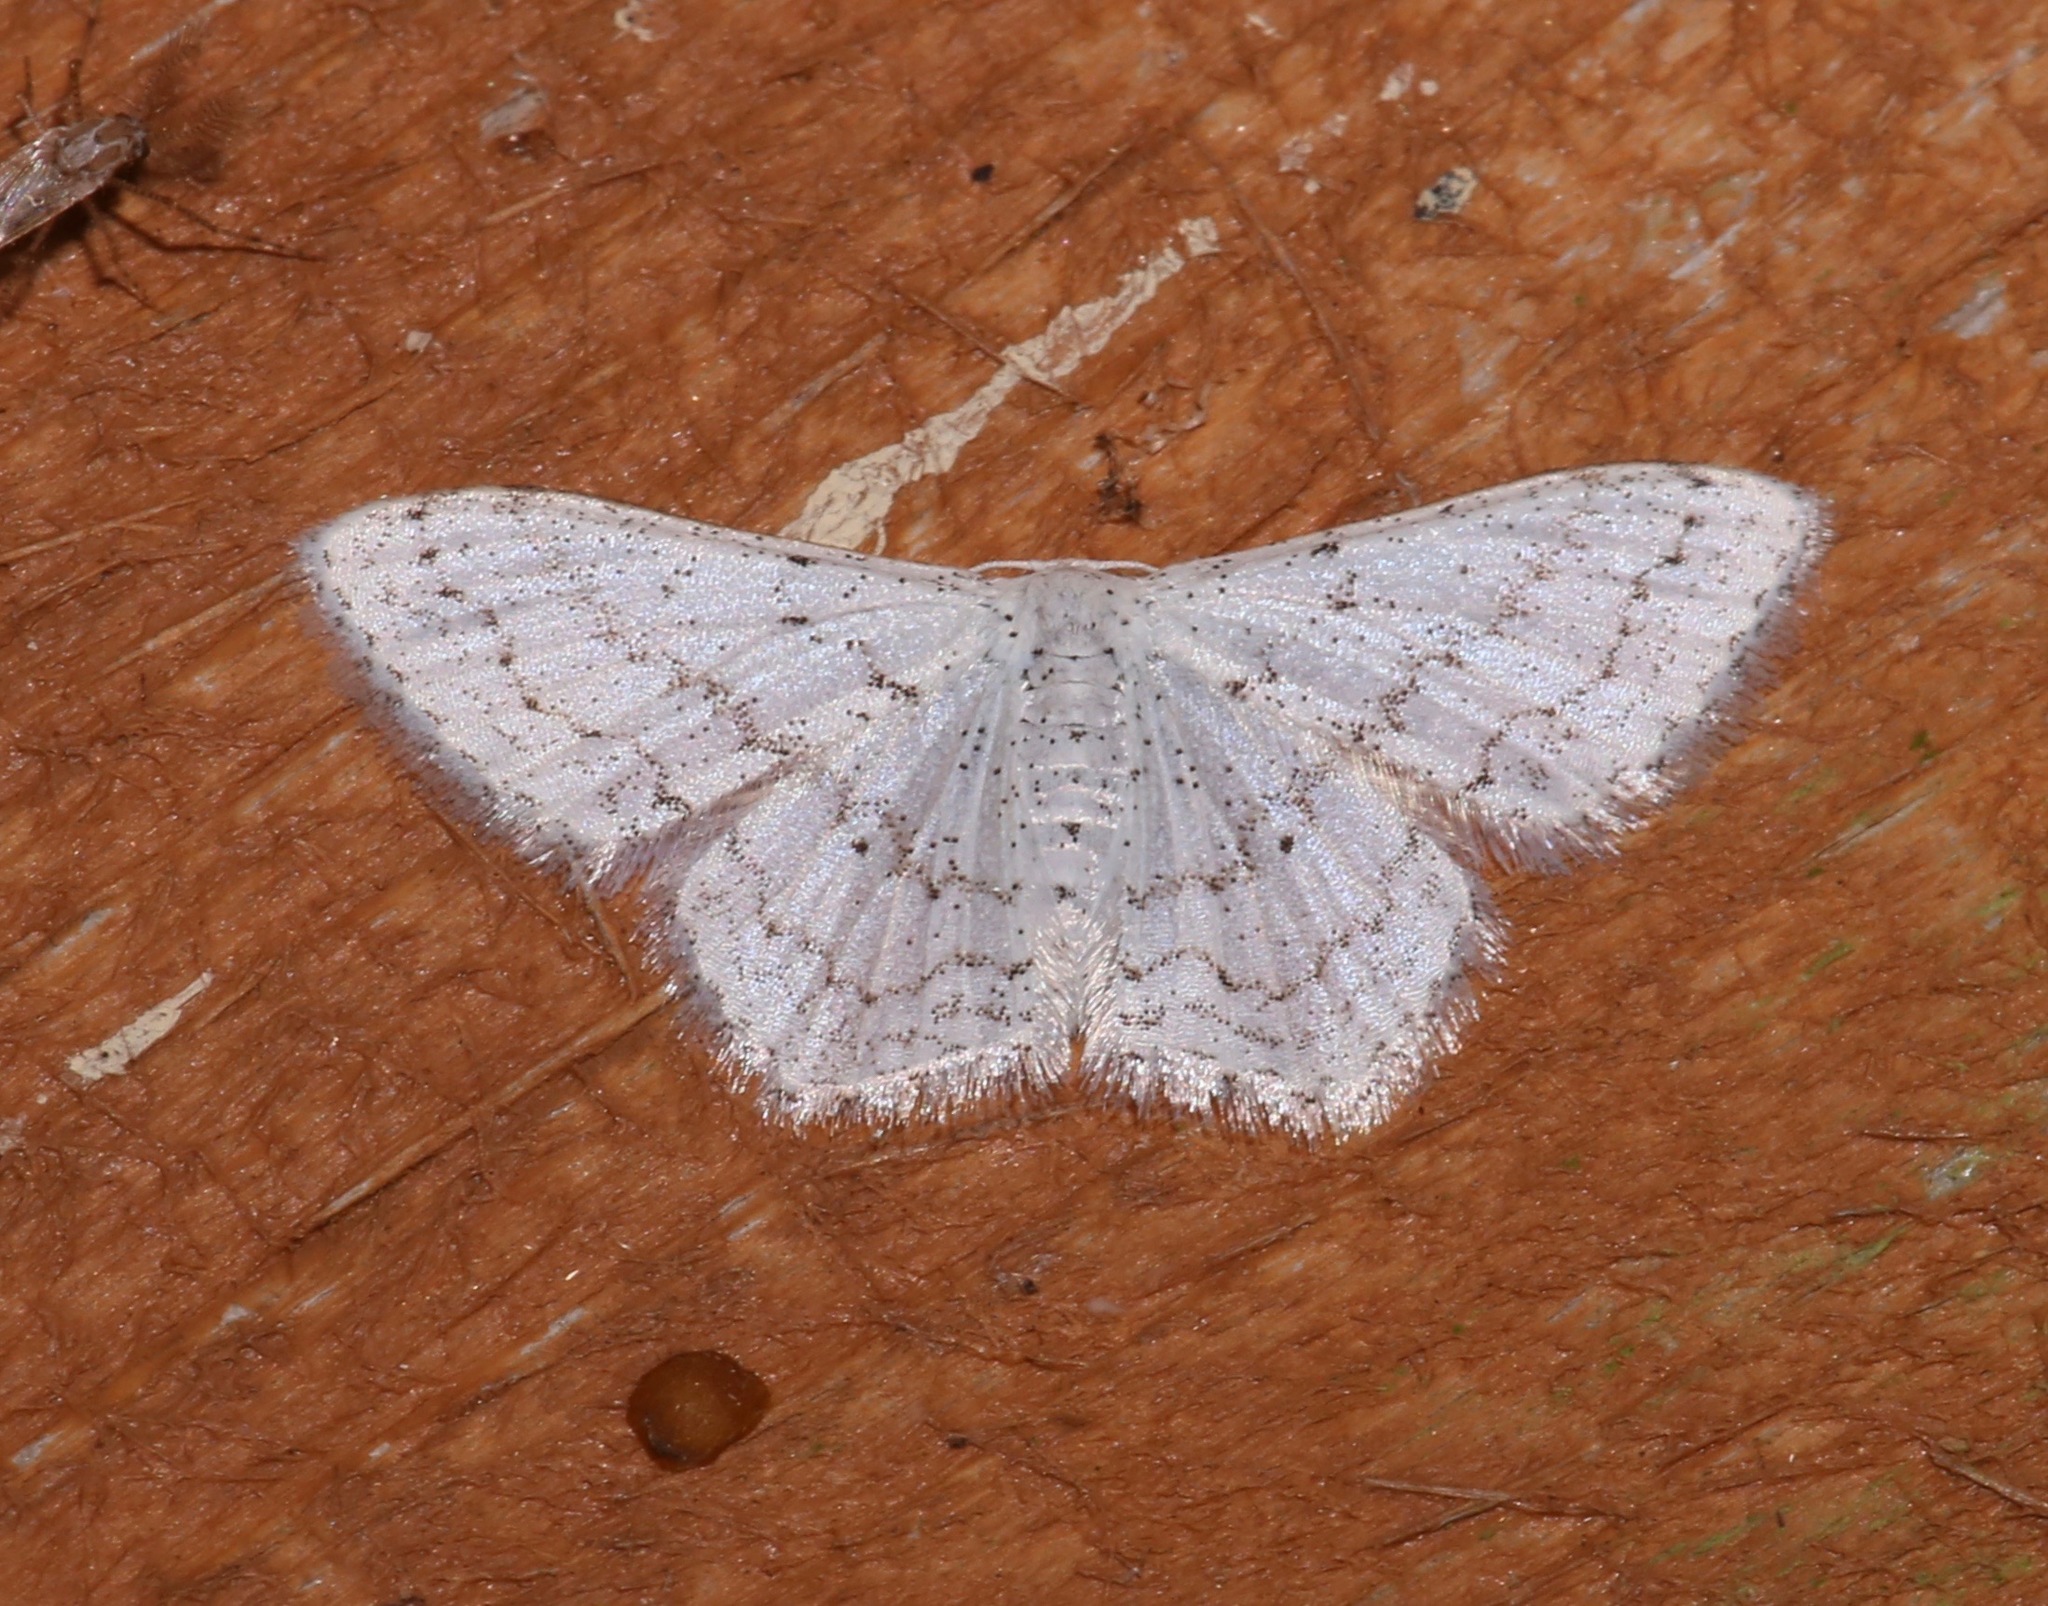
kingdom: Animalia
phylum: Arthropoda
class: Insecta
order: Lepidoptera
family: Geometridae
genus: Idaea
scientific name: Idaea tacturata
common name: Dot-lined wave
